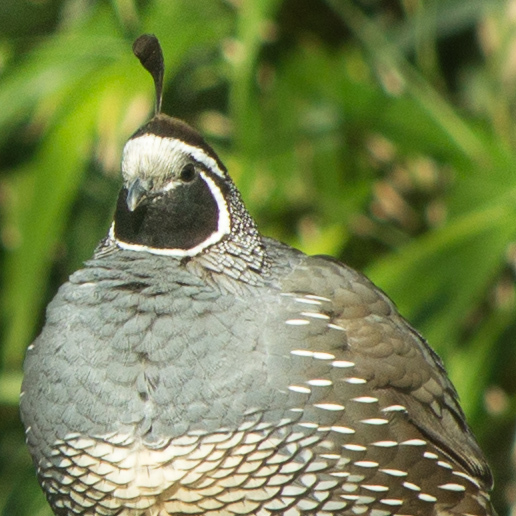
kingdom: Animalia
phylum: Chordata
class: Aves
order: Galliformes
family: Odontophoridae
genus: Callipepla
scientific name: Callipepla californica
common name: California quail
